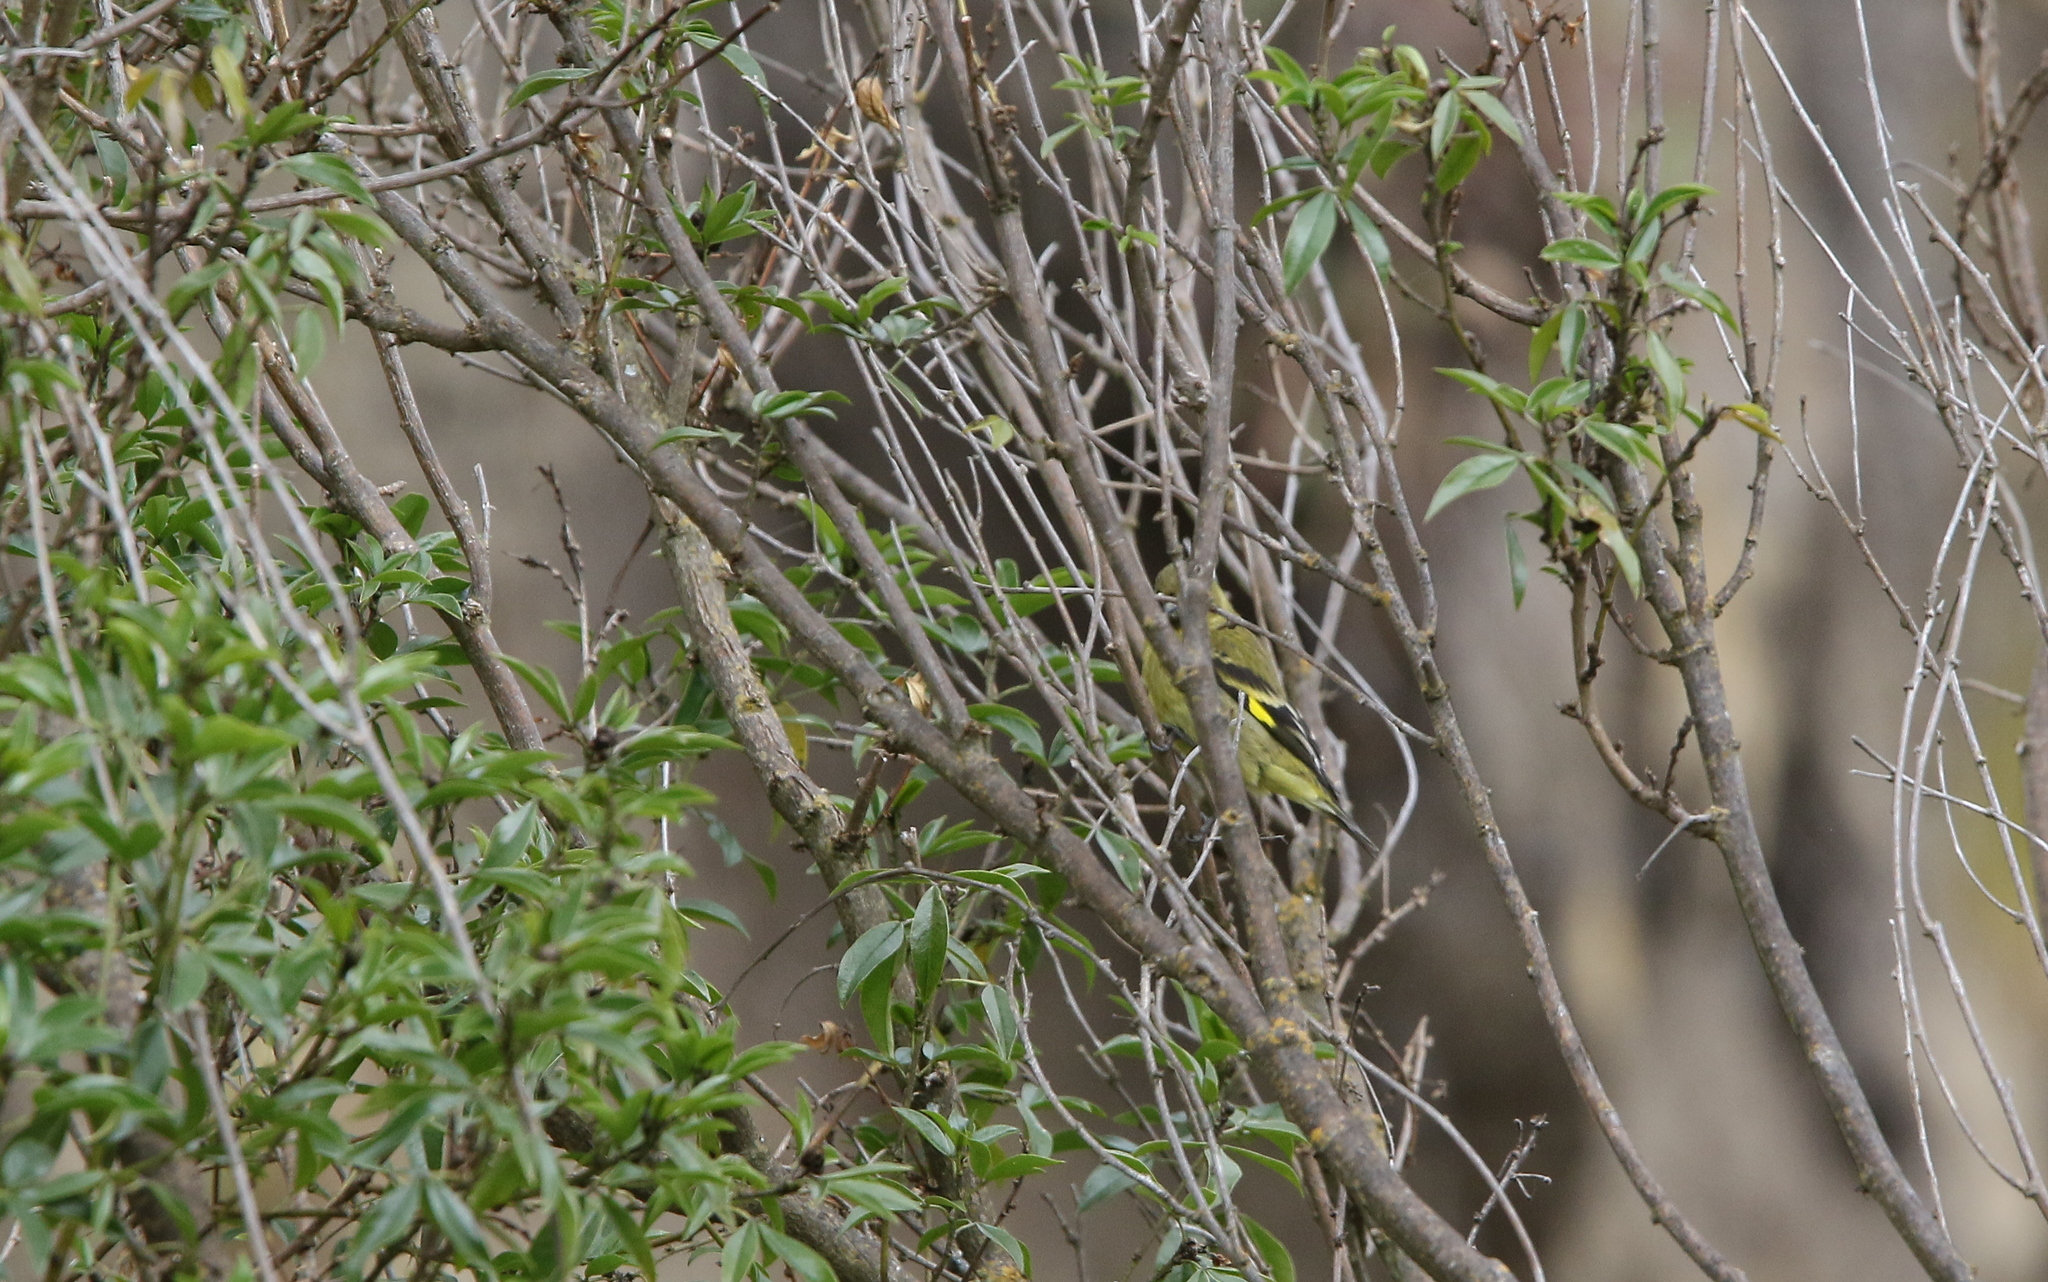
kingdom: Animalia
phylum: Chordata
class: Aves
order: Passeriformes
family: Fringillidae
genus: Spinus
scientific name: Spinus magellanicus
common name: Hooded siskin
